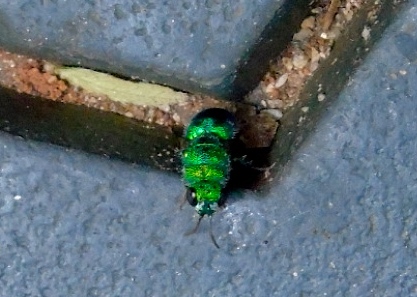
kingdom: Animalia
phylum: Arthropoda
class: Insecta
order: Hymenoptera
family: Chrysididae
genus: Caenochrysis
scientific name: Caenochrysis
